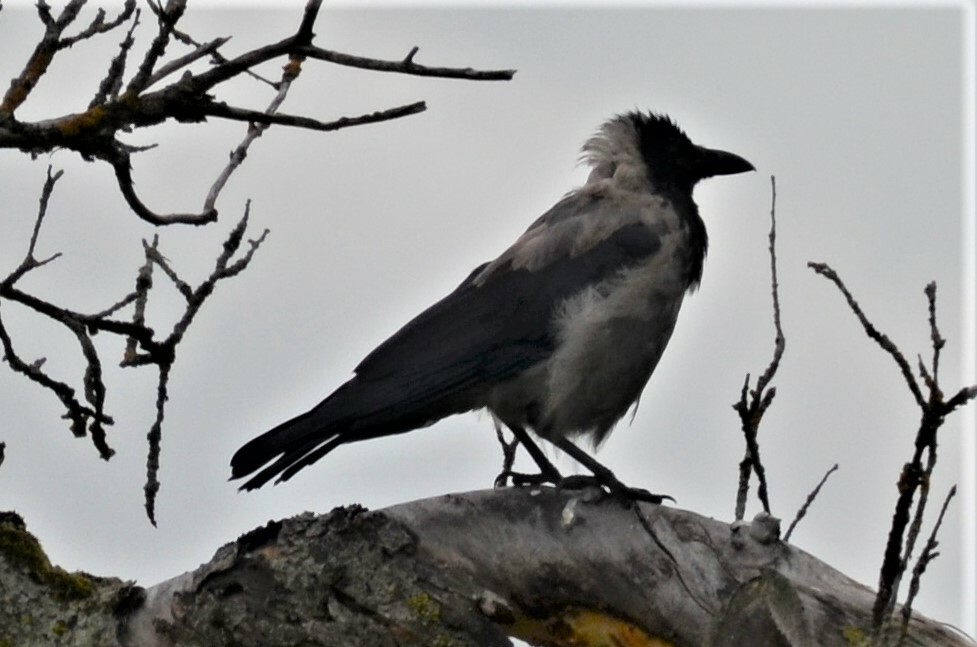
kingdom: Animalia
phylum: Chordata
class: Aves
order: Passeriformes
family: Corvidae
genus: Corvus
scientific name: Corvus cornix
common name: Hooded crow
